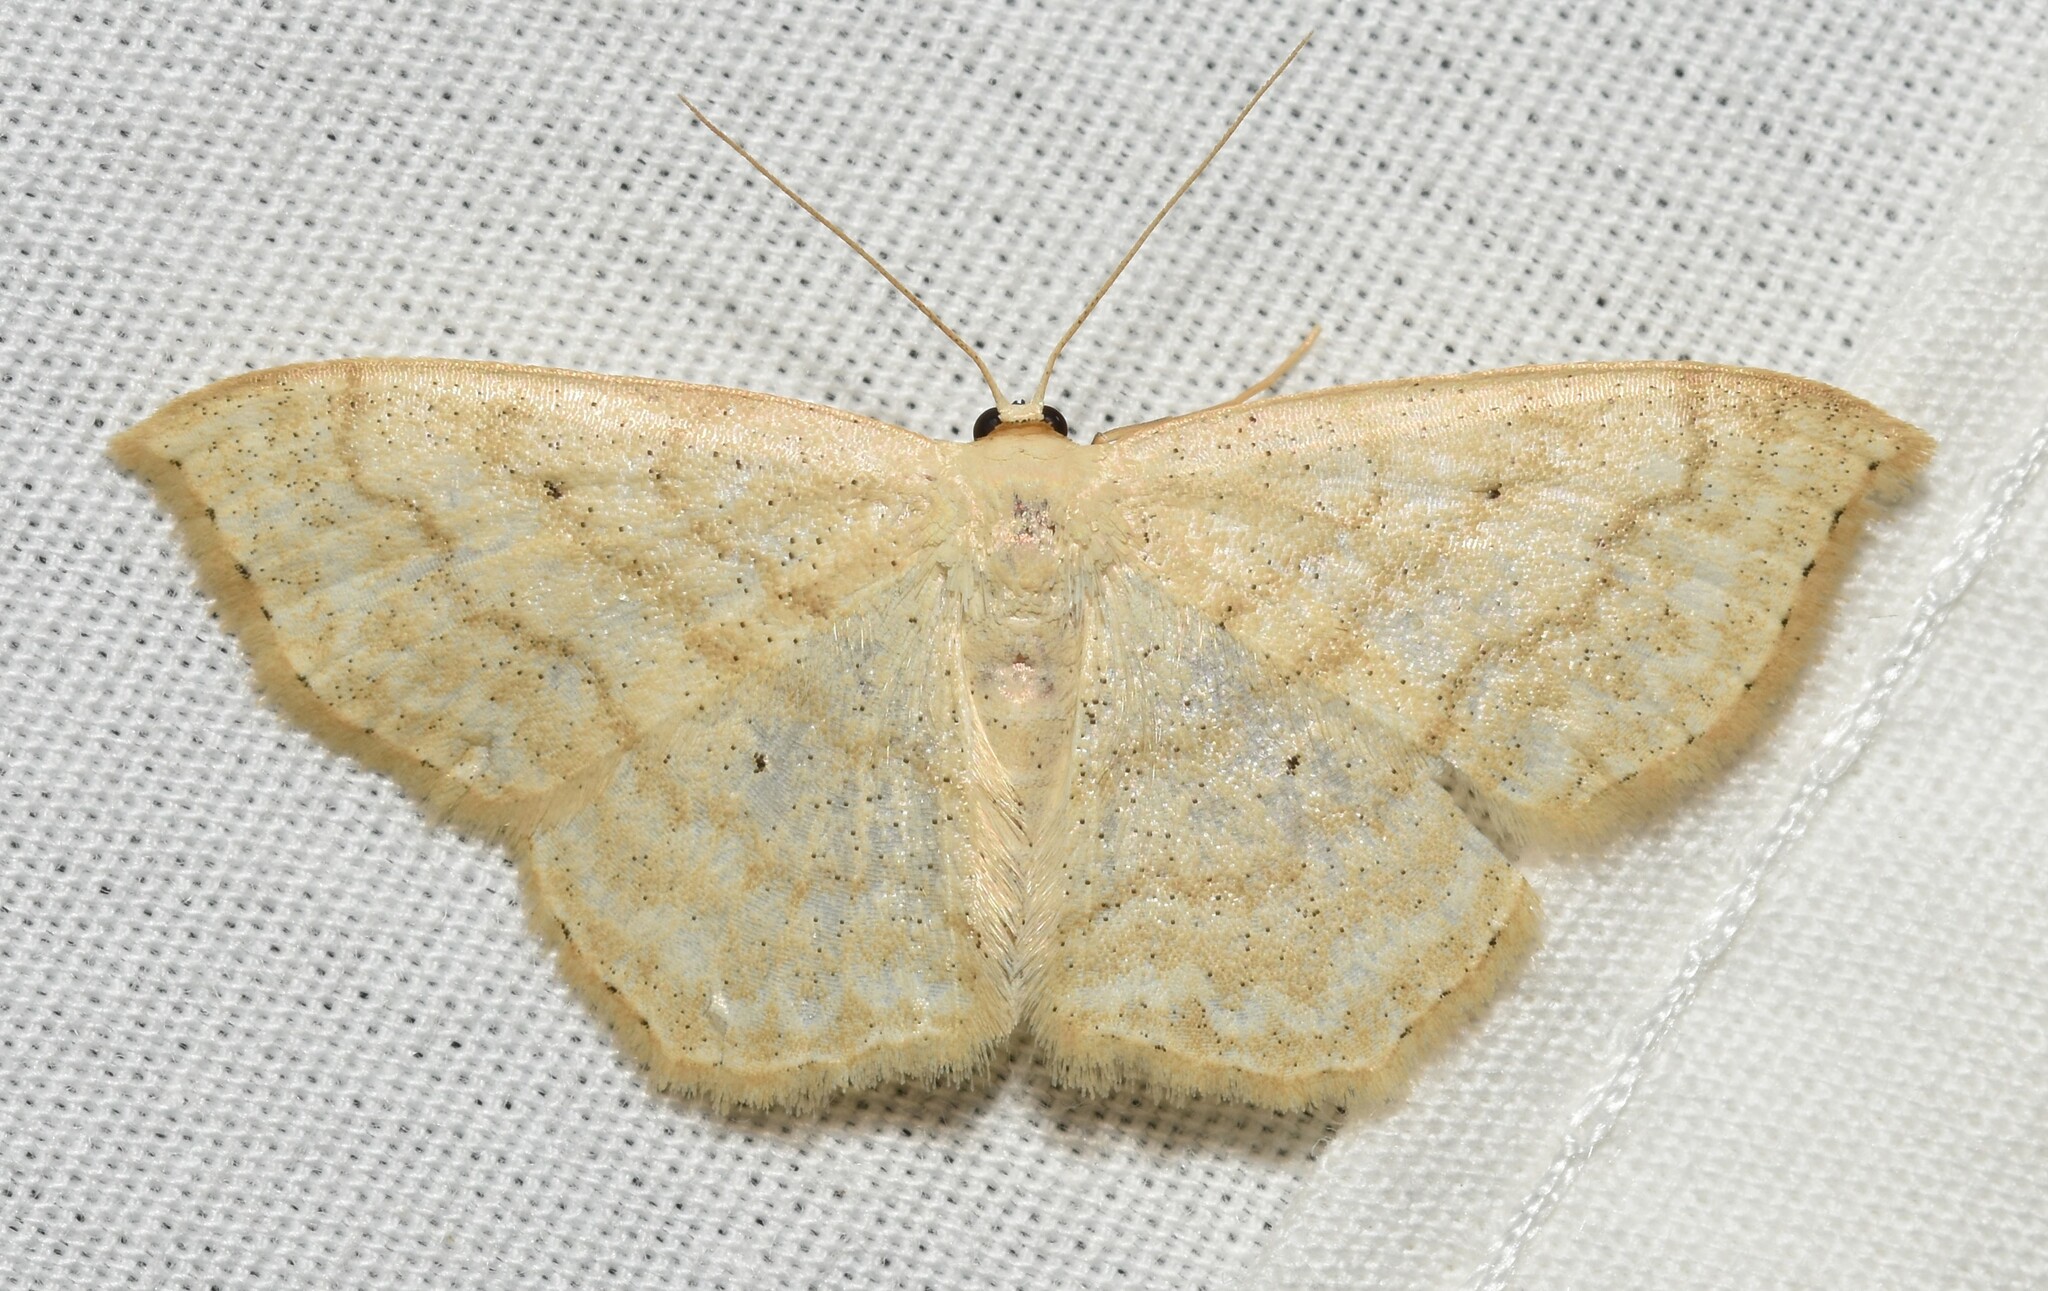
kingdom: Animalia
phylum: Arthropoda
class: Insecta
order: Lepidoptera
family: Geometridae
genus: Scopula
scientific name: Scopula limboundata
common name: Large lace border
